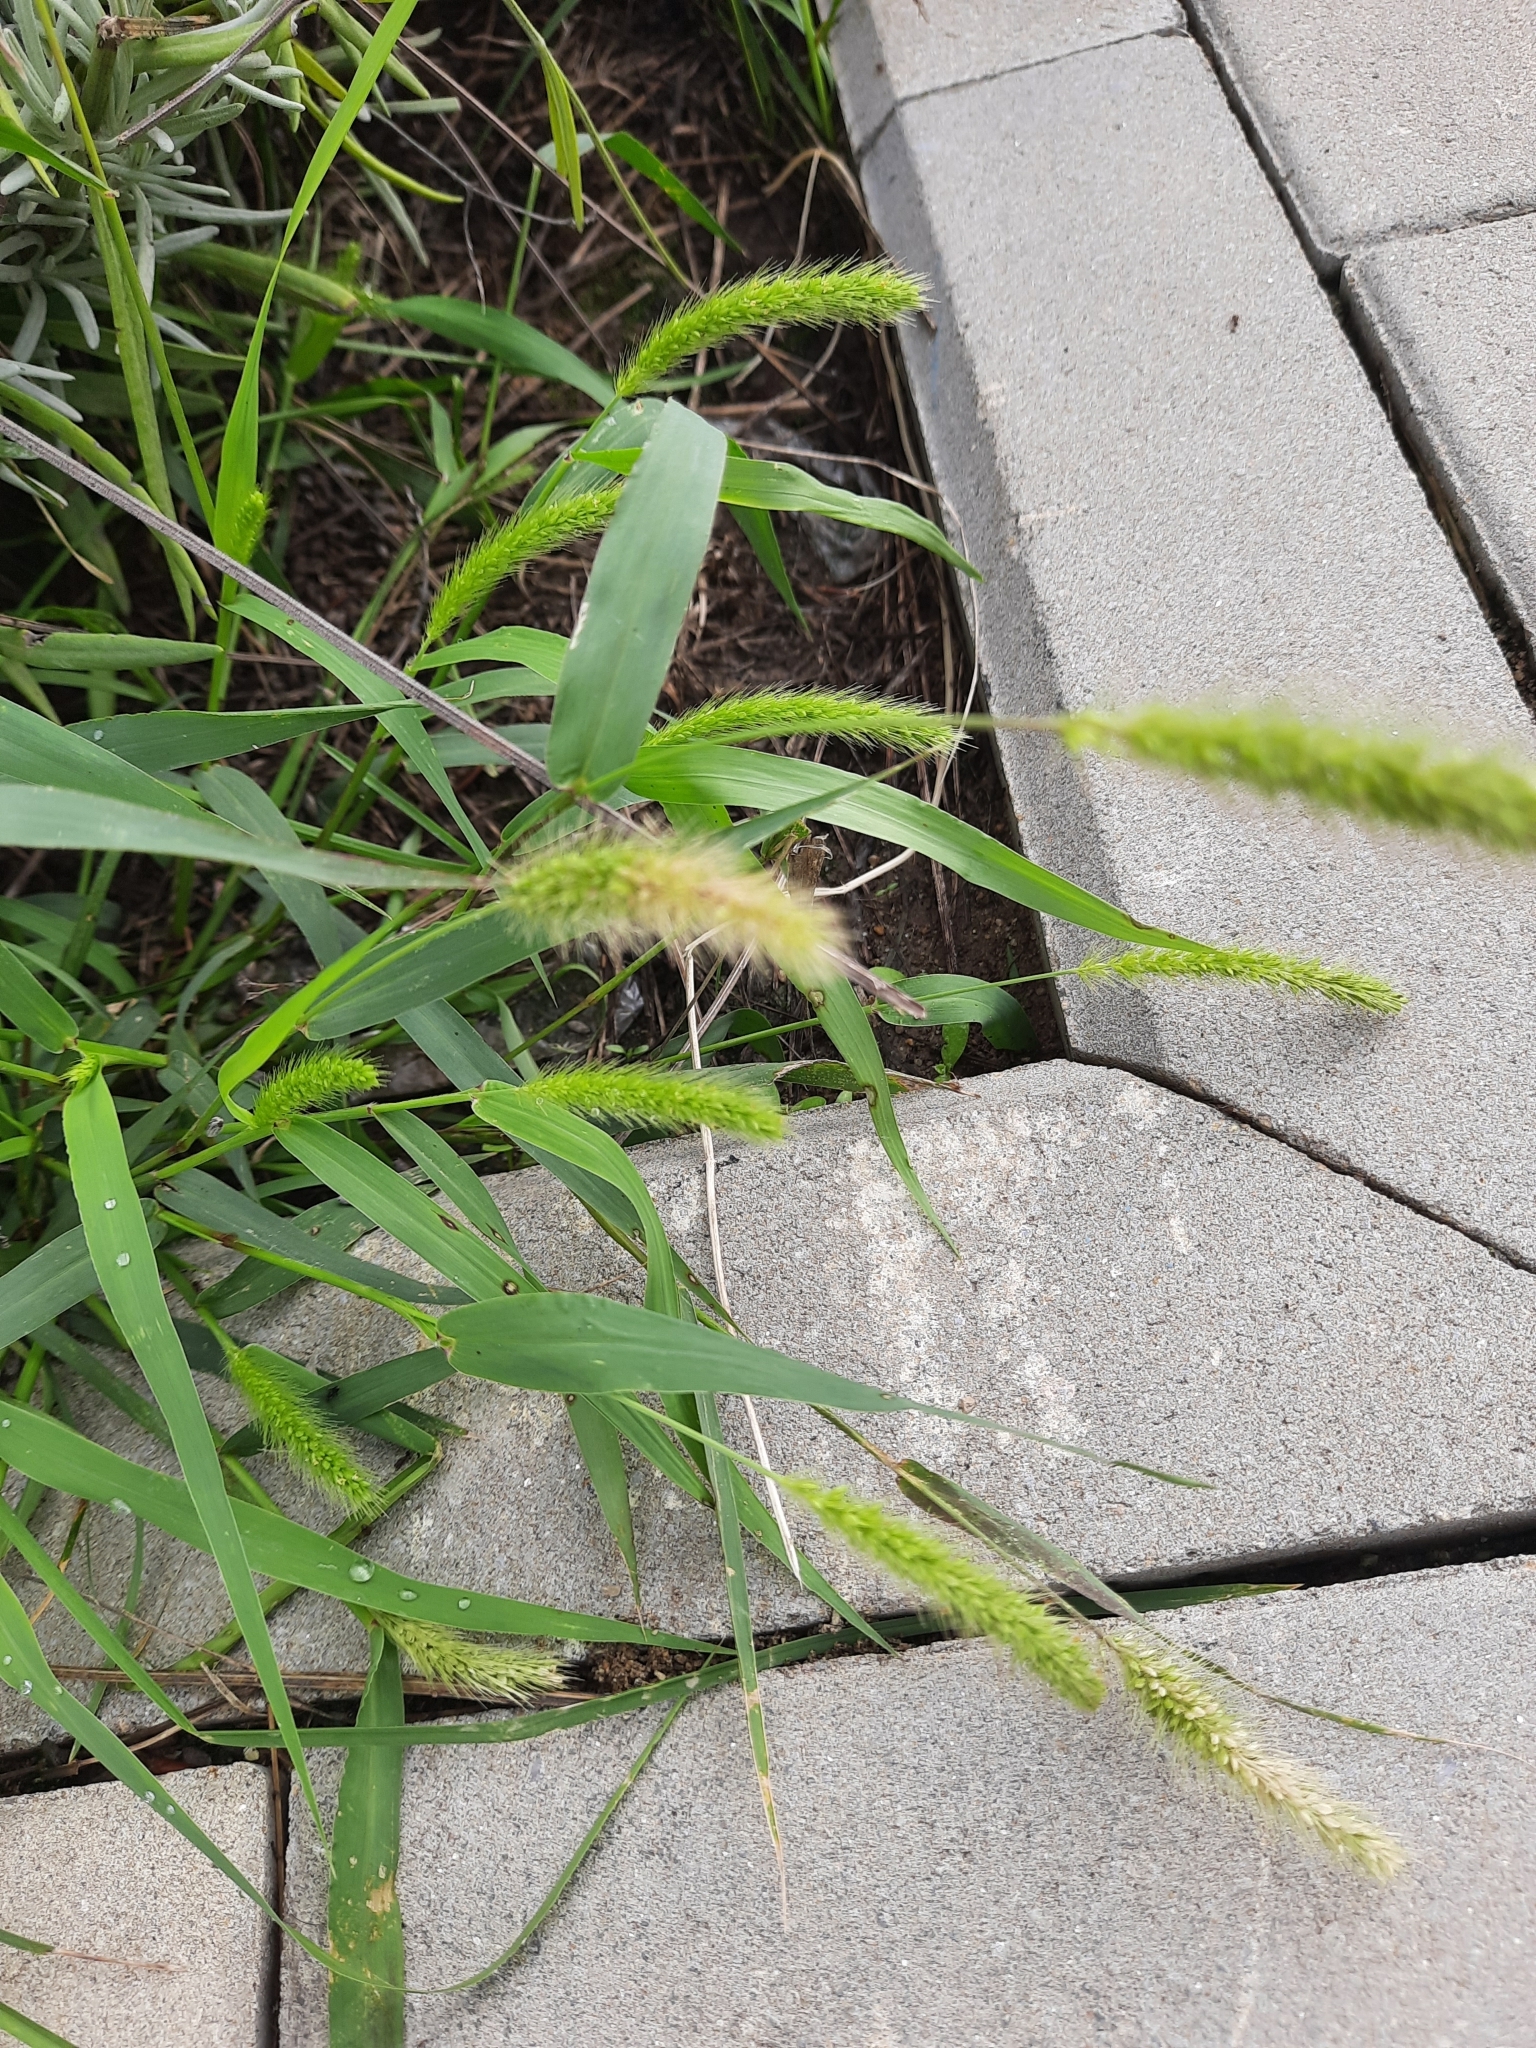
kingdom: Plantae
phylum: Tracheophyta
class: Liliopsida
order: Poales
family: Poaceae
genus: Setaria
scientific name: Setaria viridis
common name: Green bristlegrass
